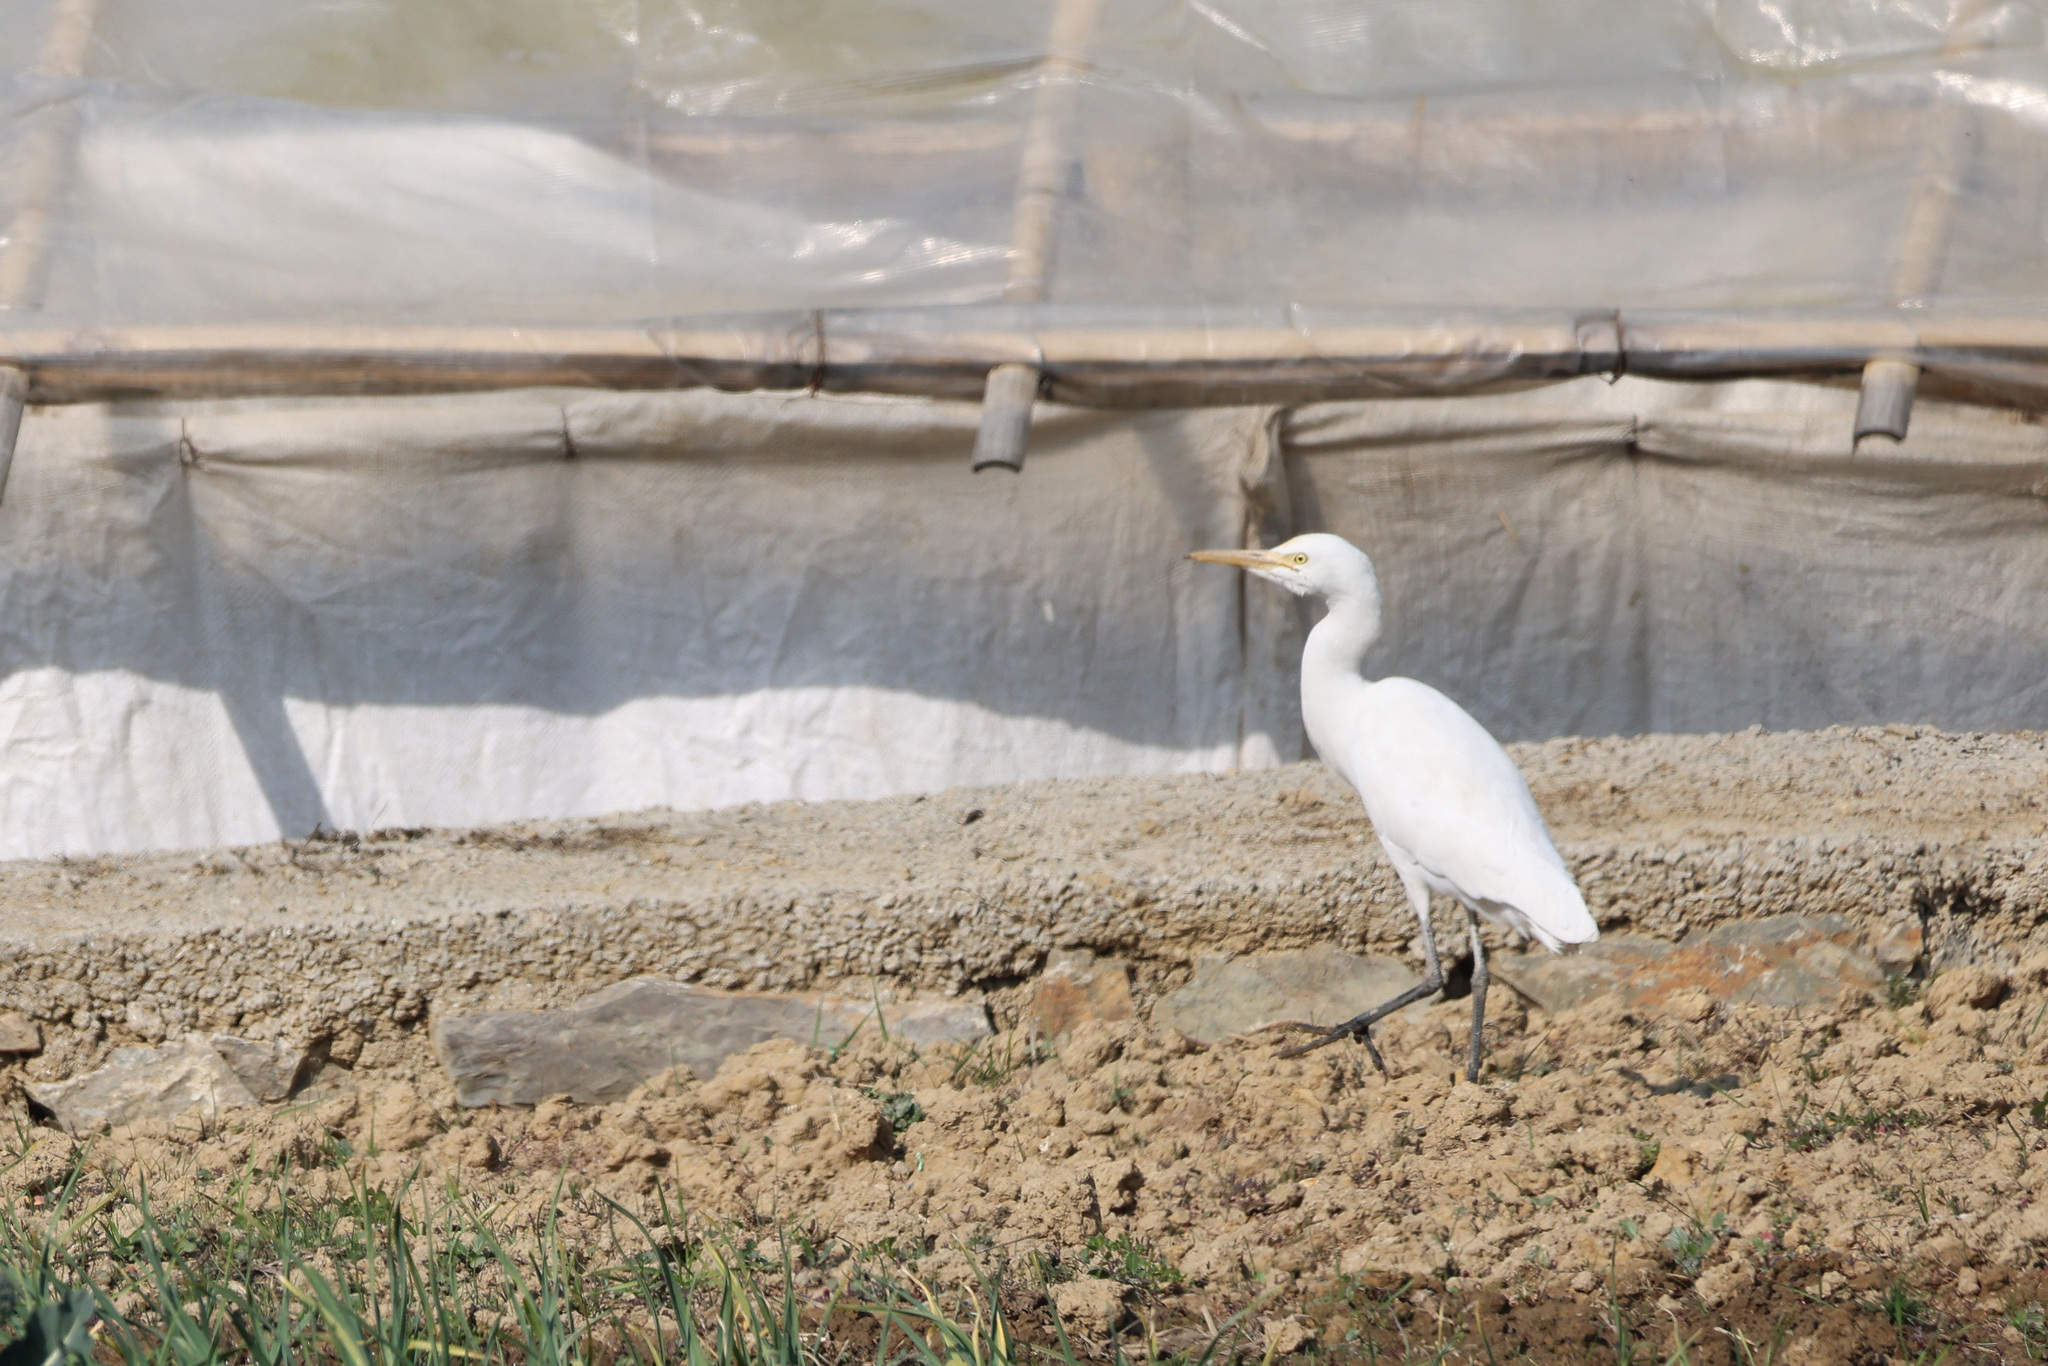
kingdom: Animalia
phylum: Chordata
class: Aves
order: Pelecaniformes
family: Ardeidae
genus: Bubulcus
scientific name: Bubulcus coromandus
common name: Eastern cattle egret
